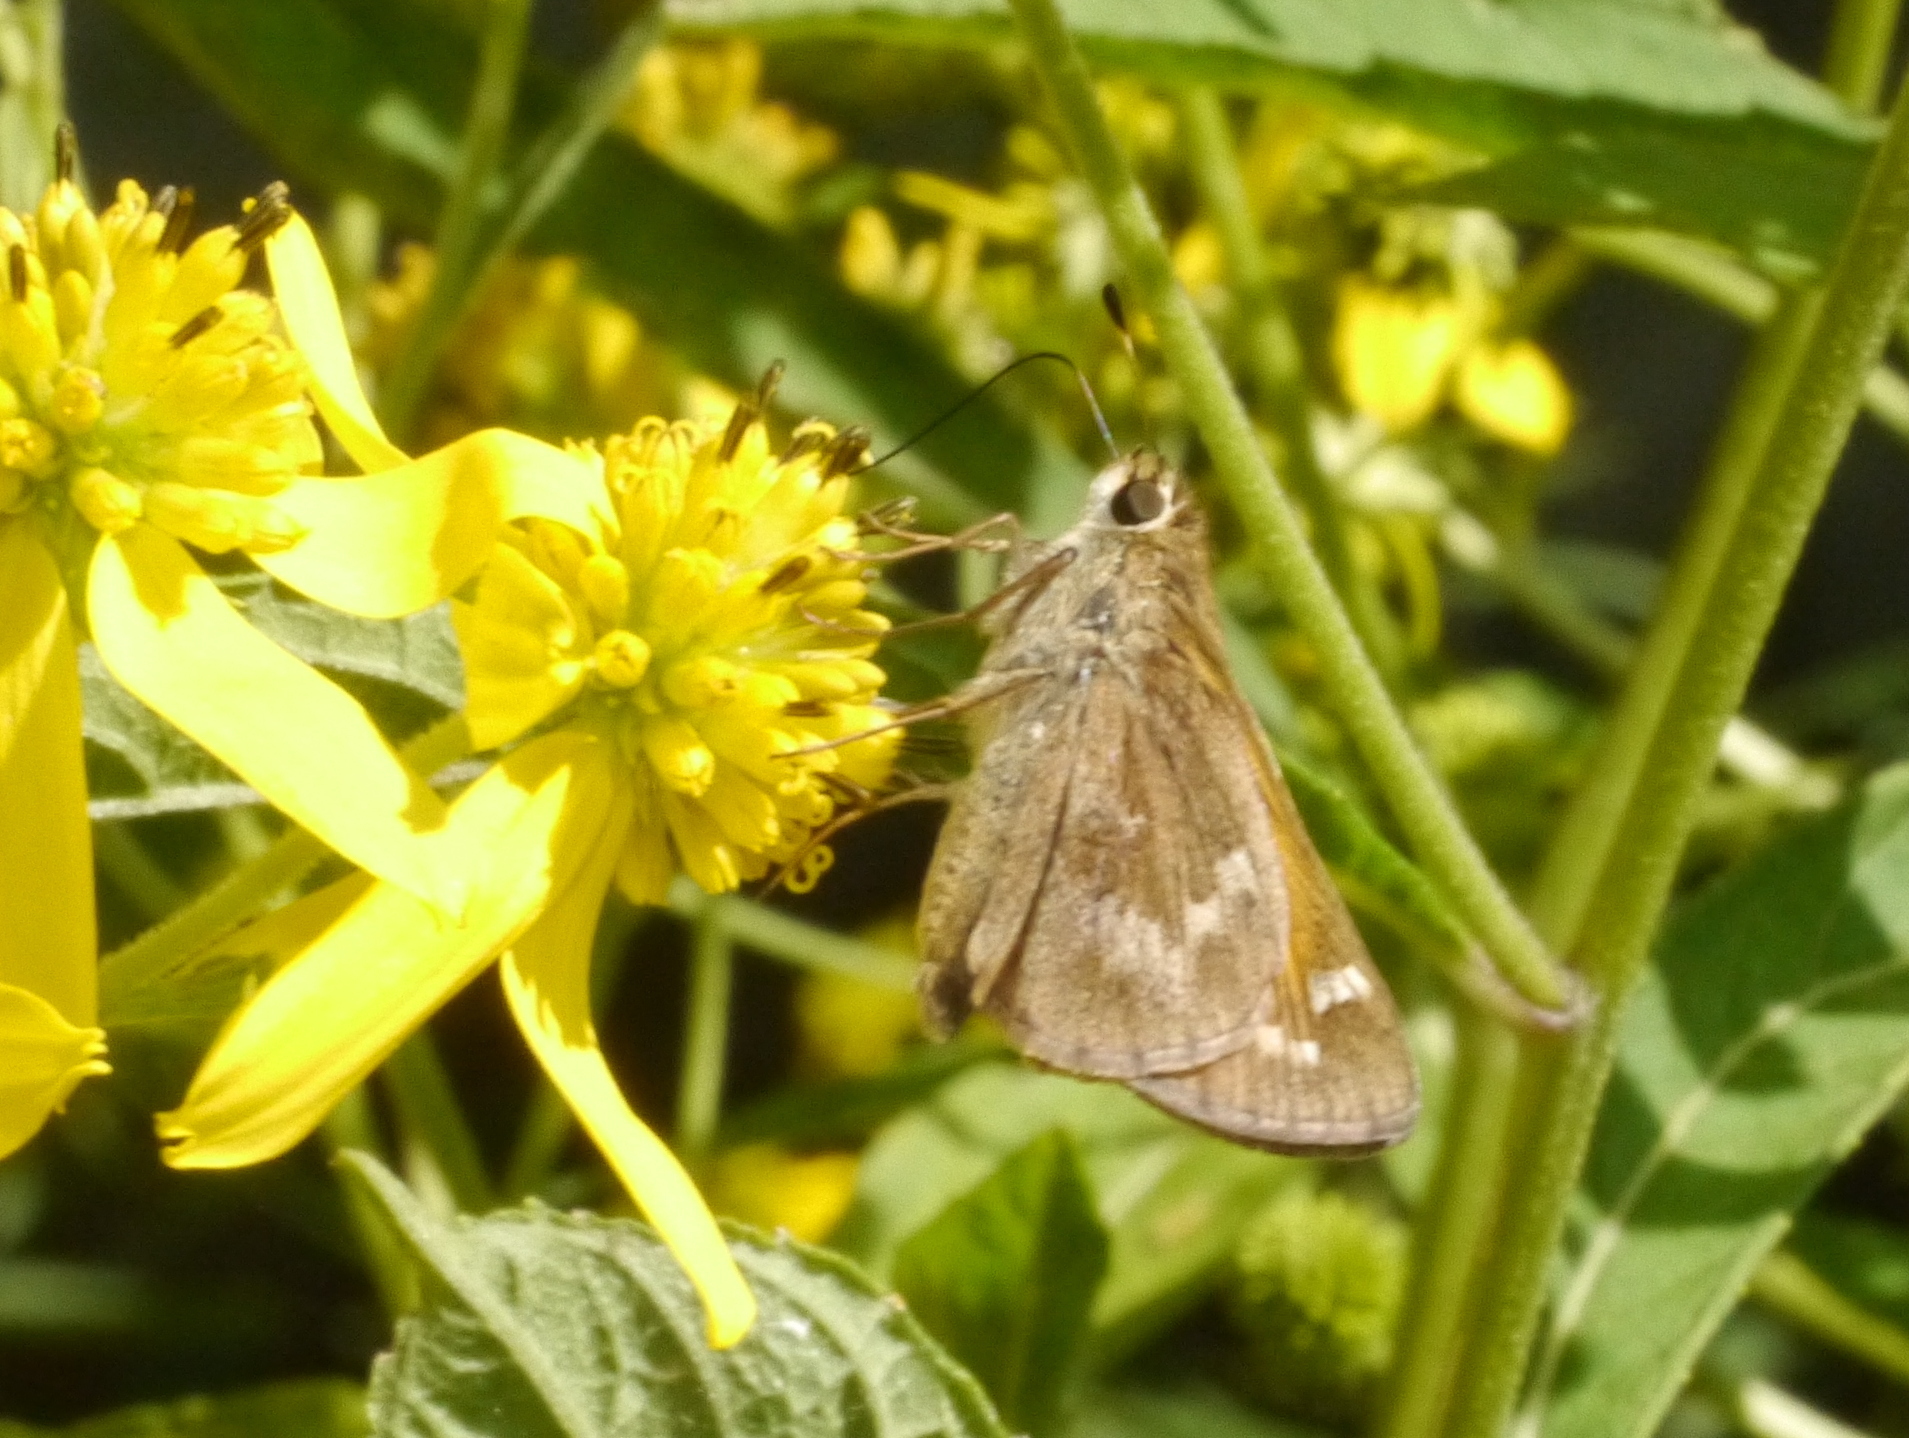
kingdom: Animalia
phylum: Arthropoda
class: Insecta
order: Lepidoptera
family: Hesperiidae
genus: Atalopedes
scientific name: Atalopedes
